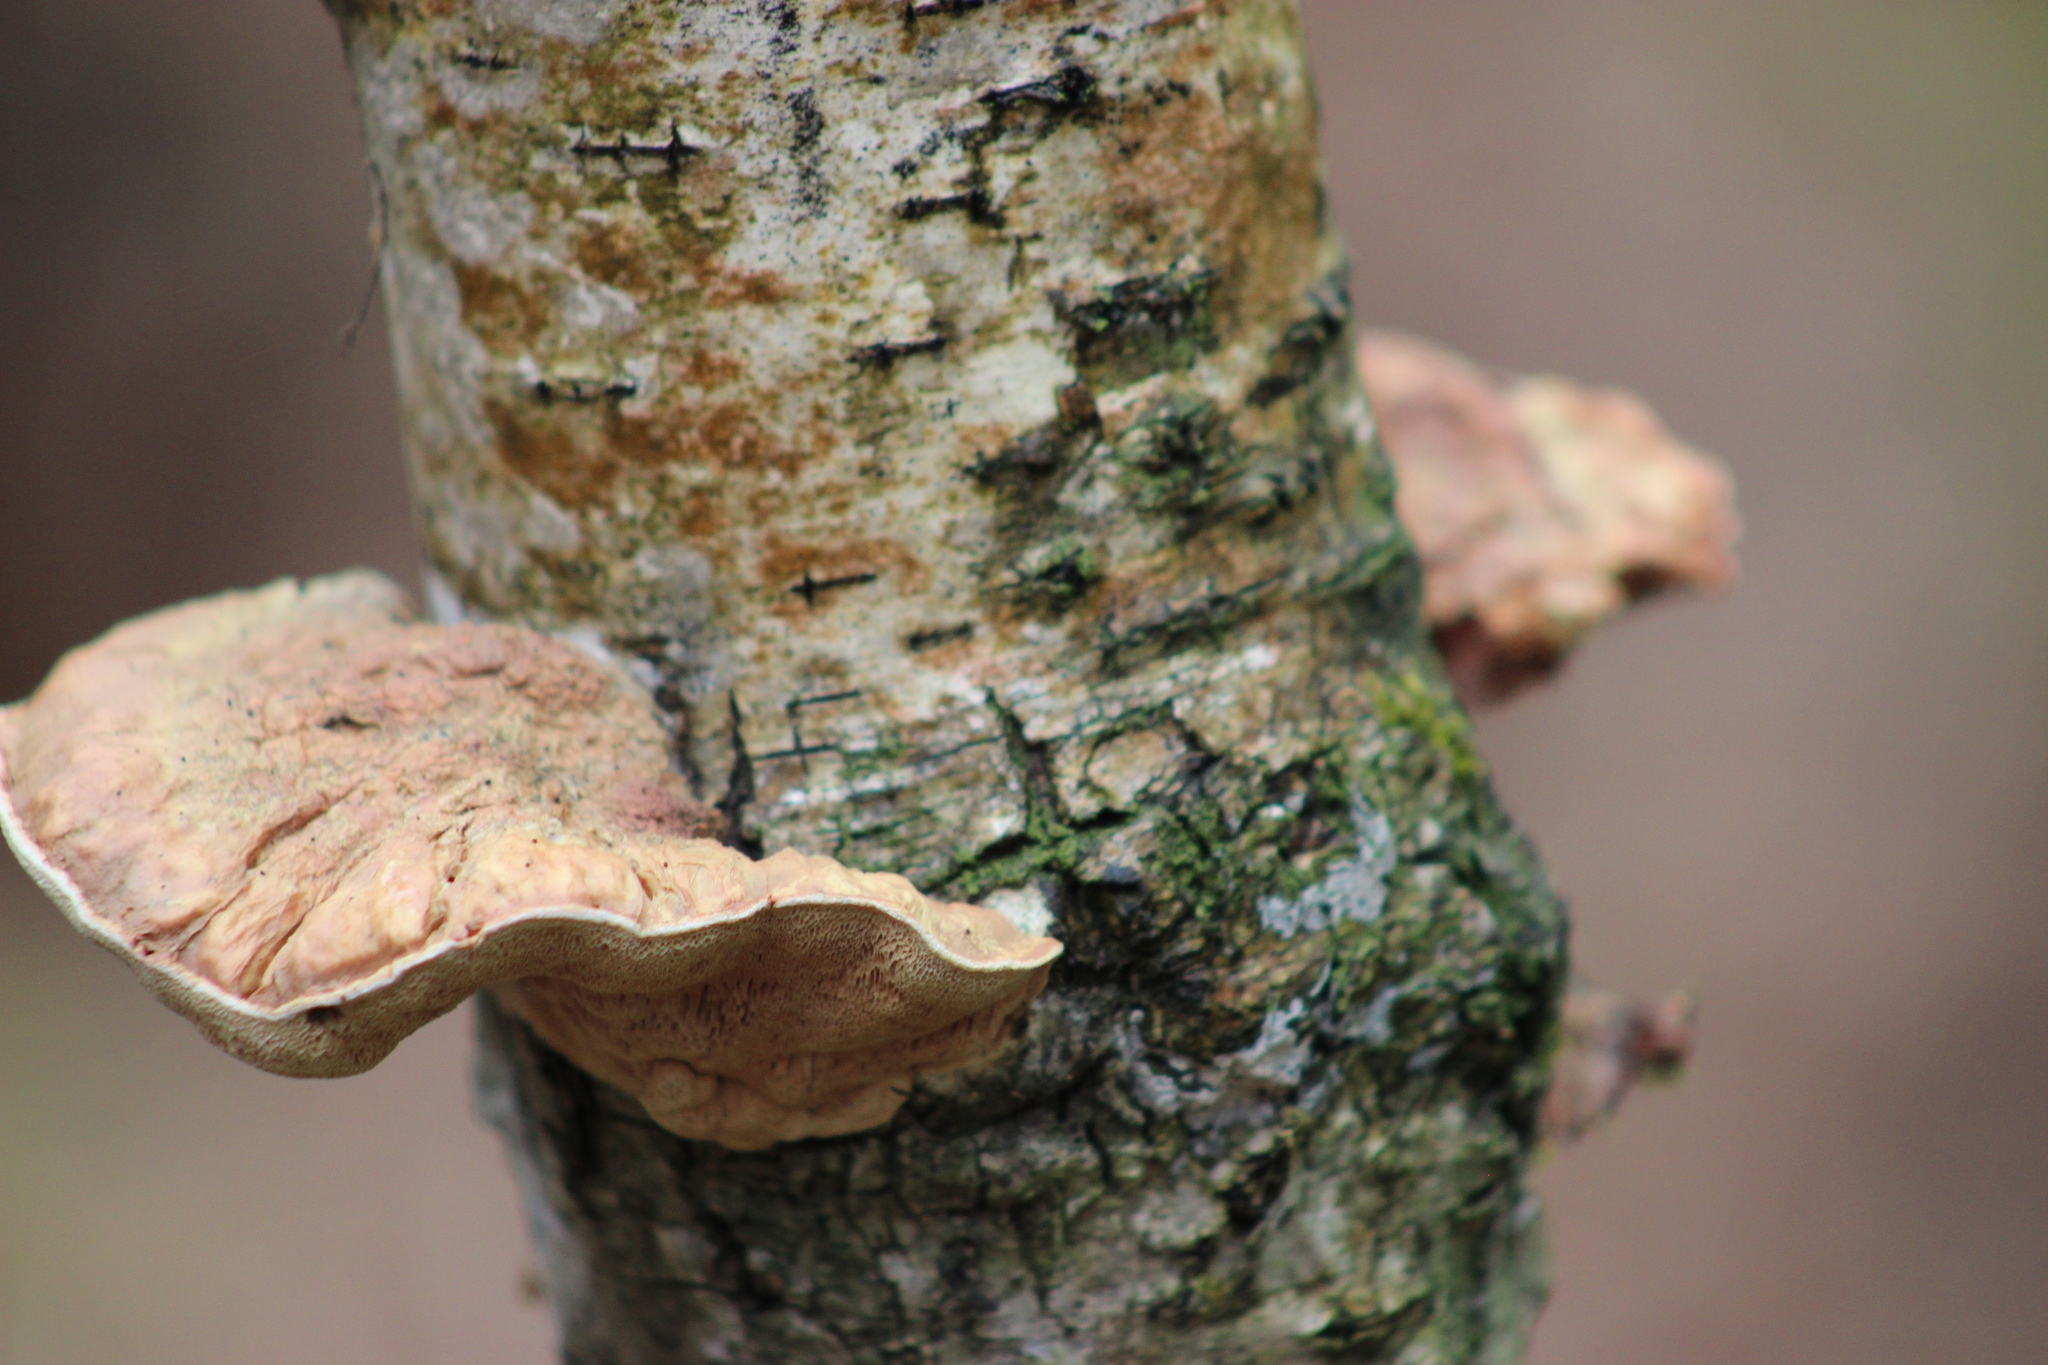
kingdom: Fungi
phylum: Basidiomycota
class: Agaricomycetes
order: Polyporales
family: Phanerochaetaceae
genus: Hapalopilus
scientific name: Hapalopilus rutilans
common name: Tender nesting polypore
